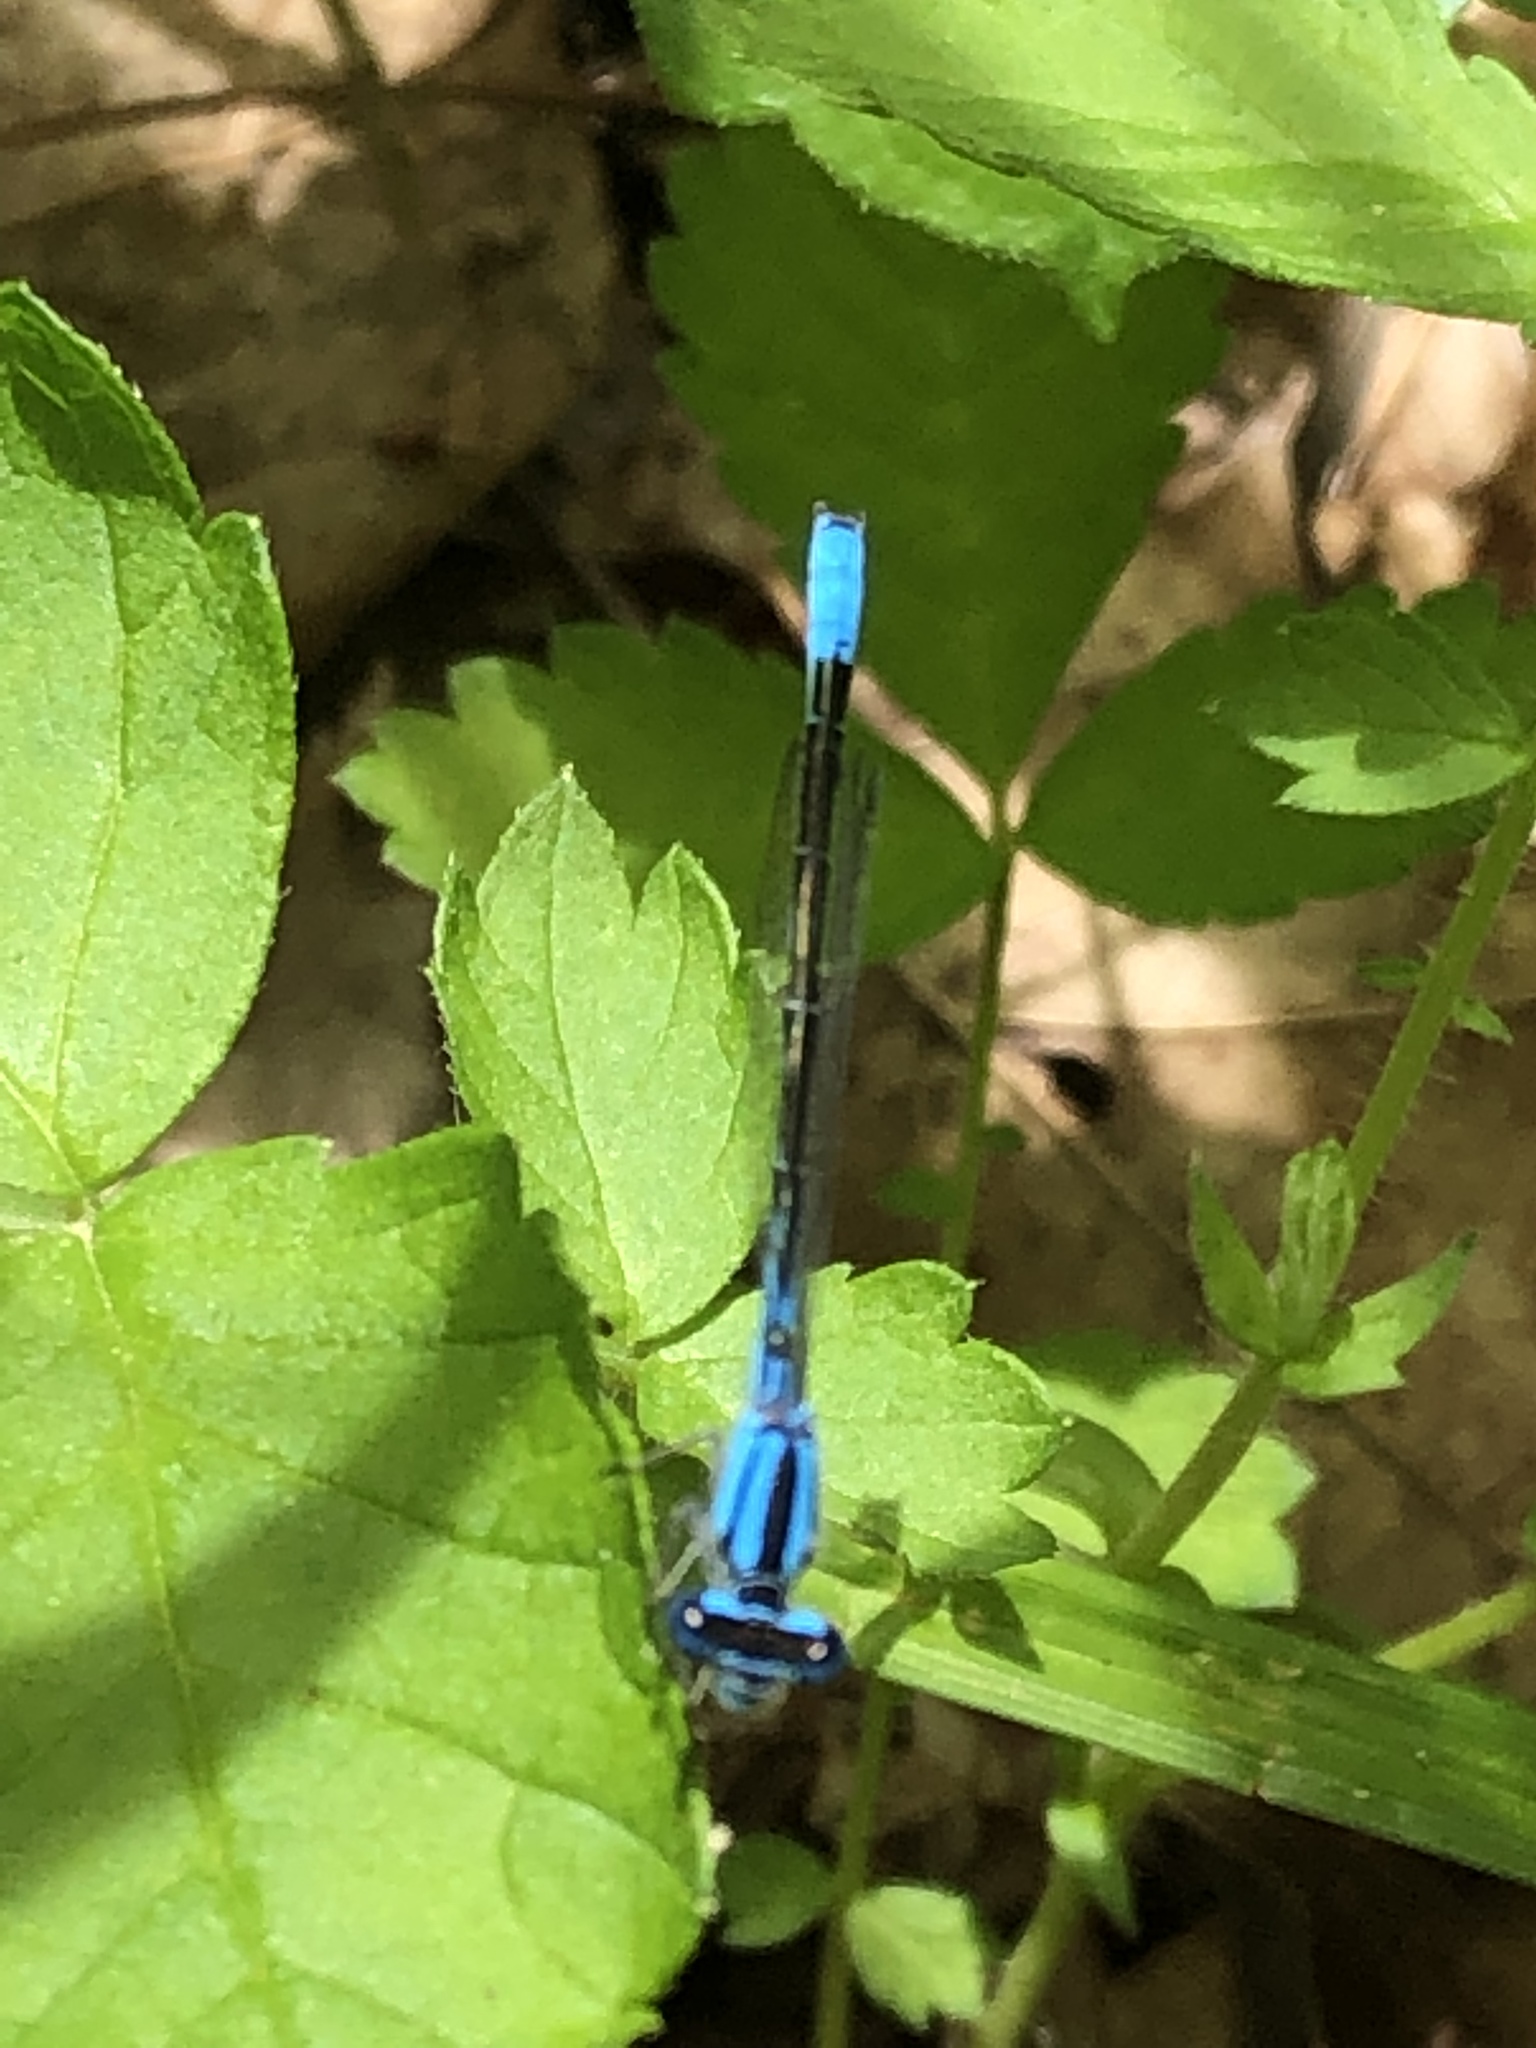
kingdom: Animalia
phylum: Arthropoda
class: Insecta
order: Odonata
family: Coenagrionidae
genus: Enallagma
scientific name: Enallagma aspersum
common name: Azure bluet
